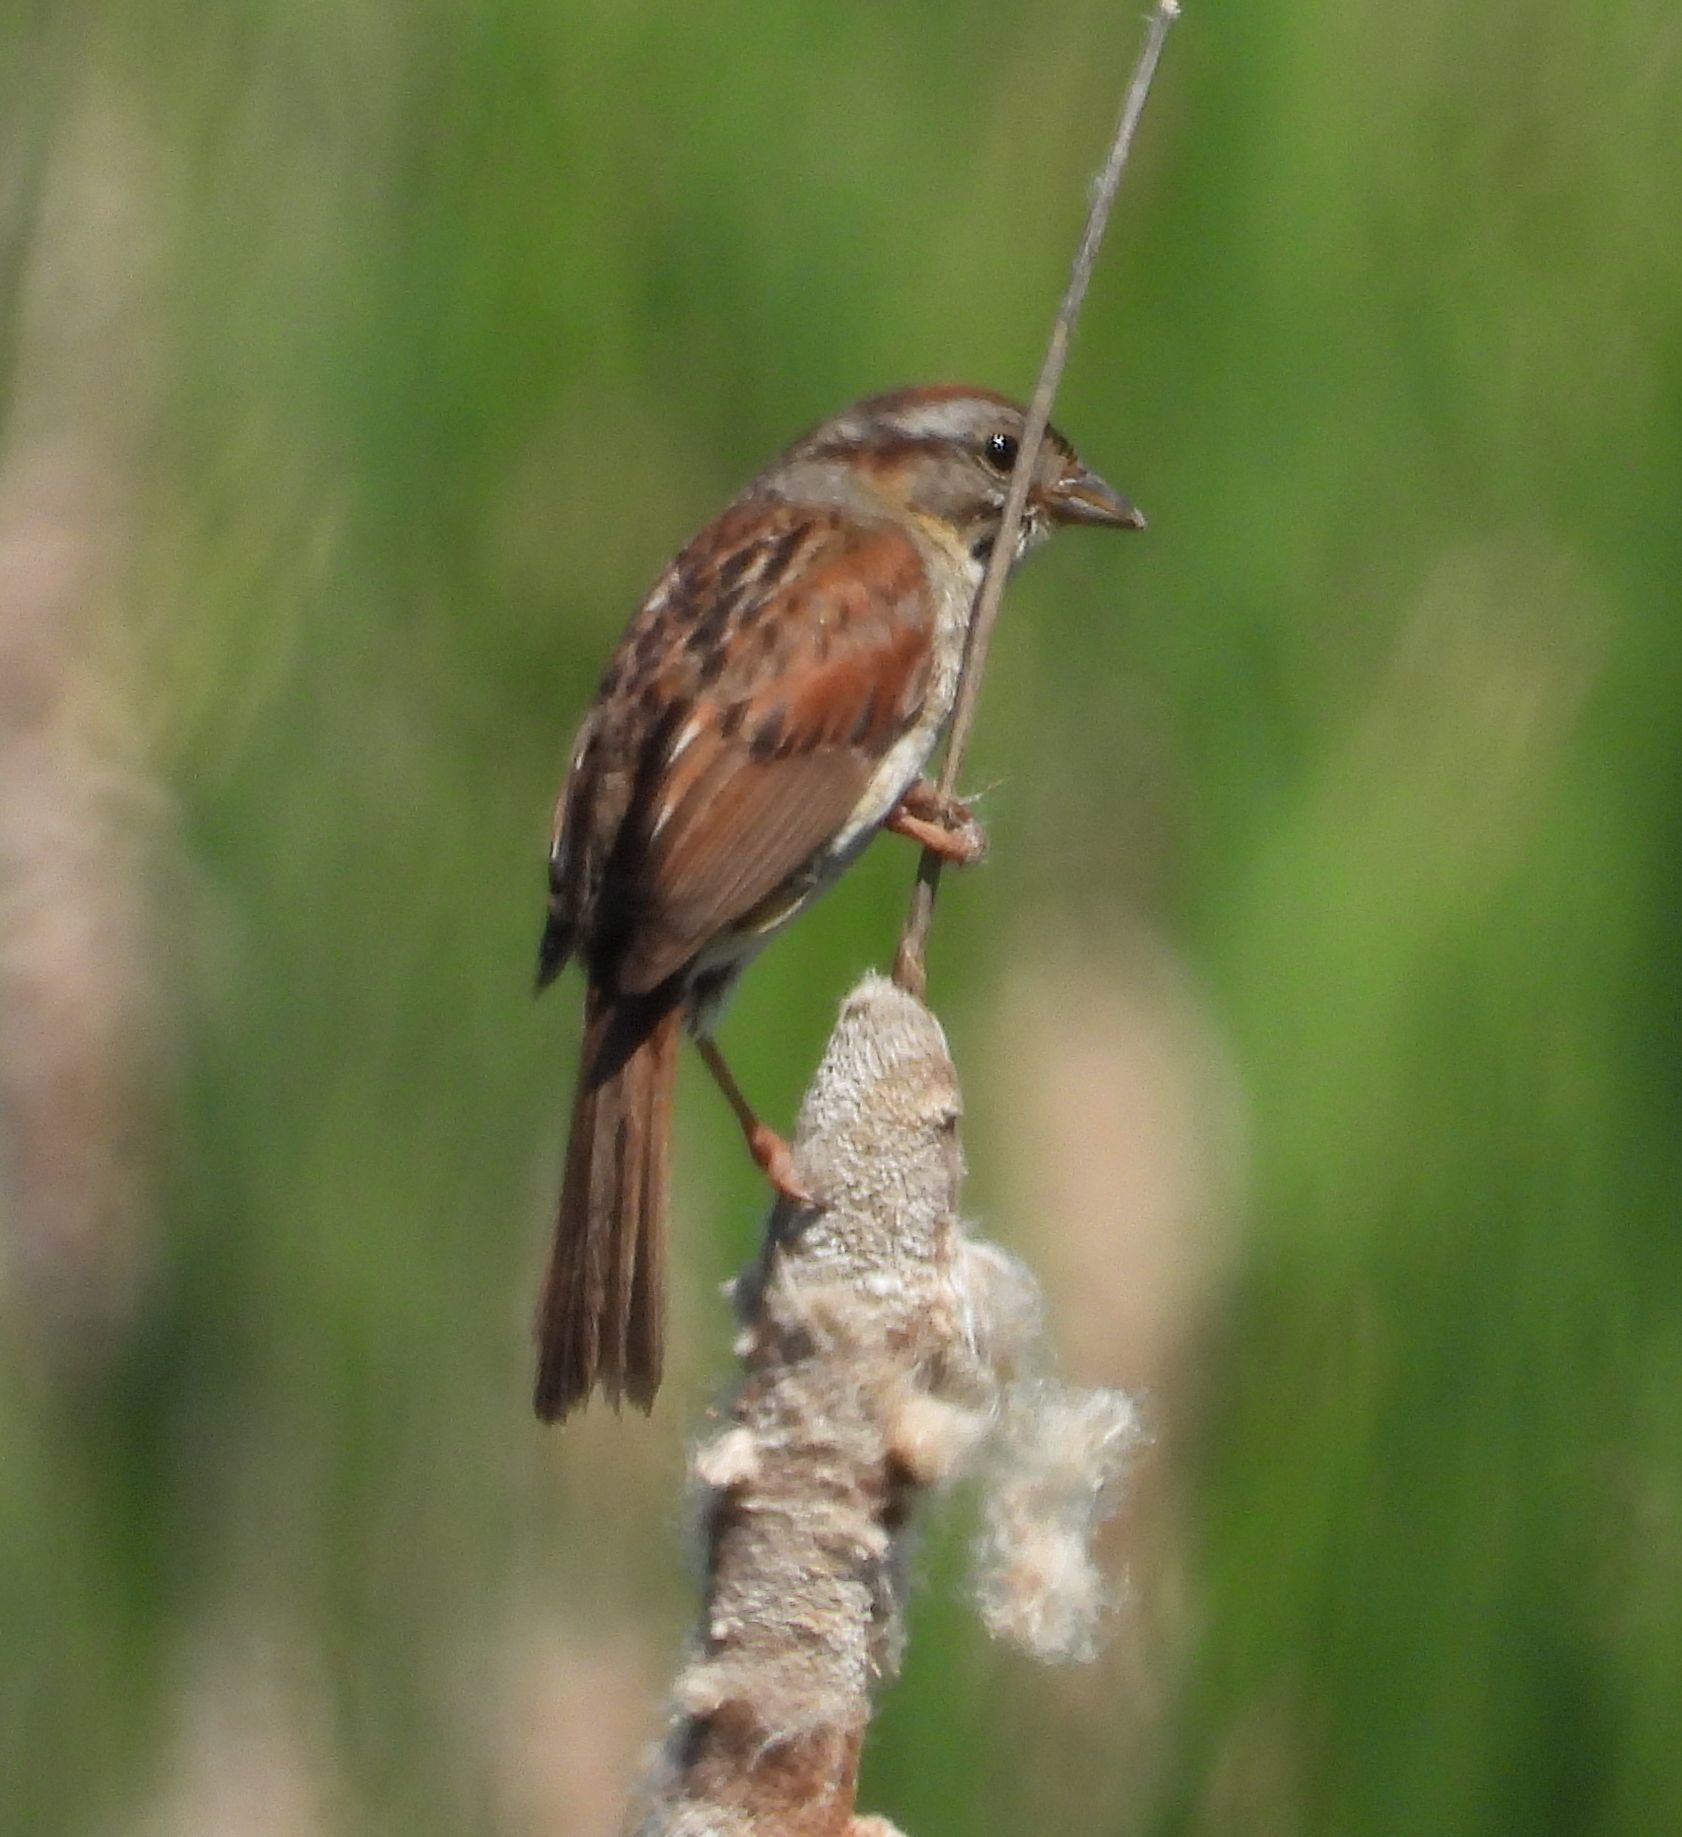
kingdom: Animalia
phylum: Chordata
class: Aves
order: Passeriformes
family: Passerellidae
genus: Melospiza
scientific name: Melospiza georgiana
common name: Swamp sparrow
